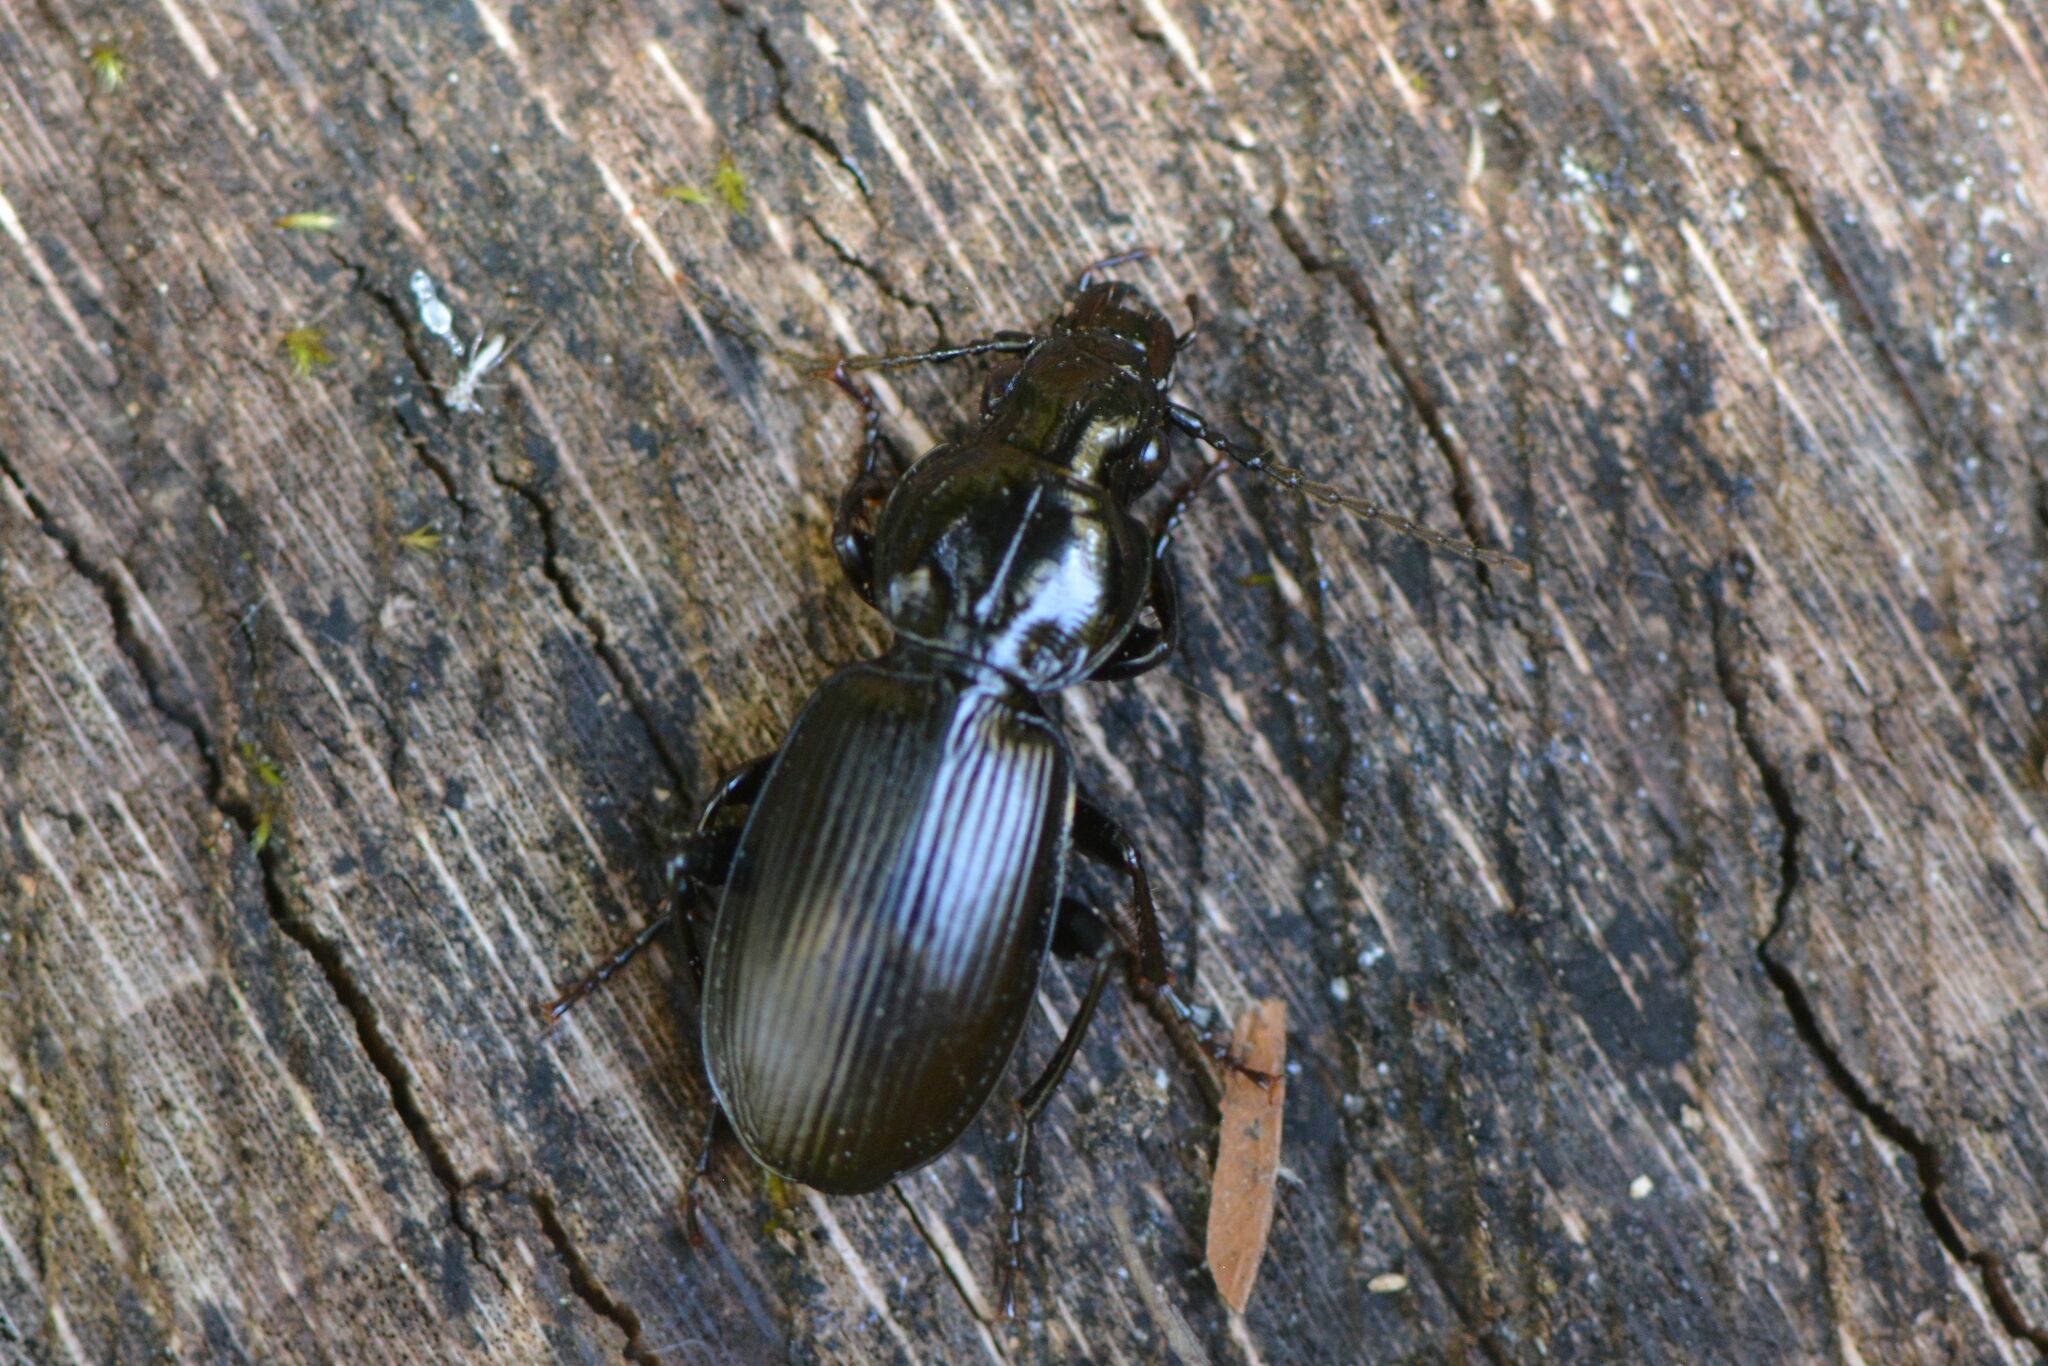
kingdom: Animalia
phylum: Arthropoda
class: Insecta
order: Coleoptera
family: Carabidae
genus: Pterostichus
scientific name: Pterostichus madidus
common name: Black clock
